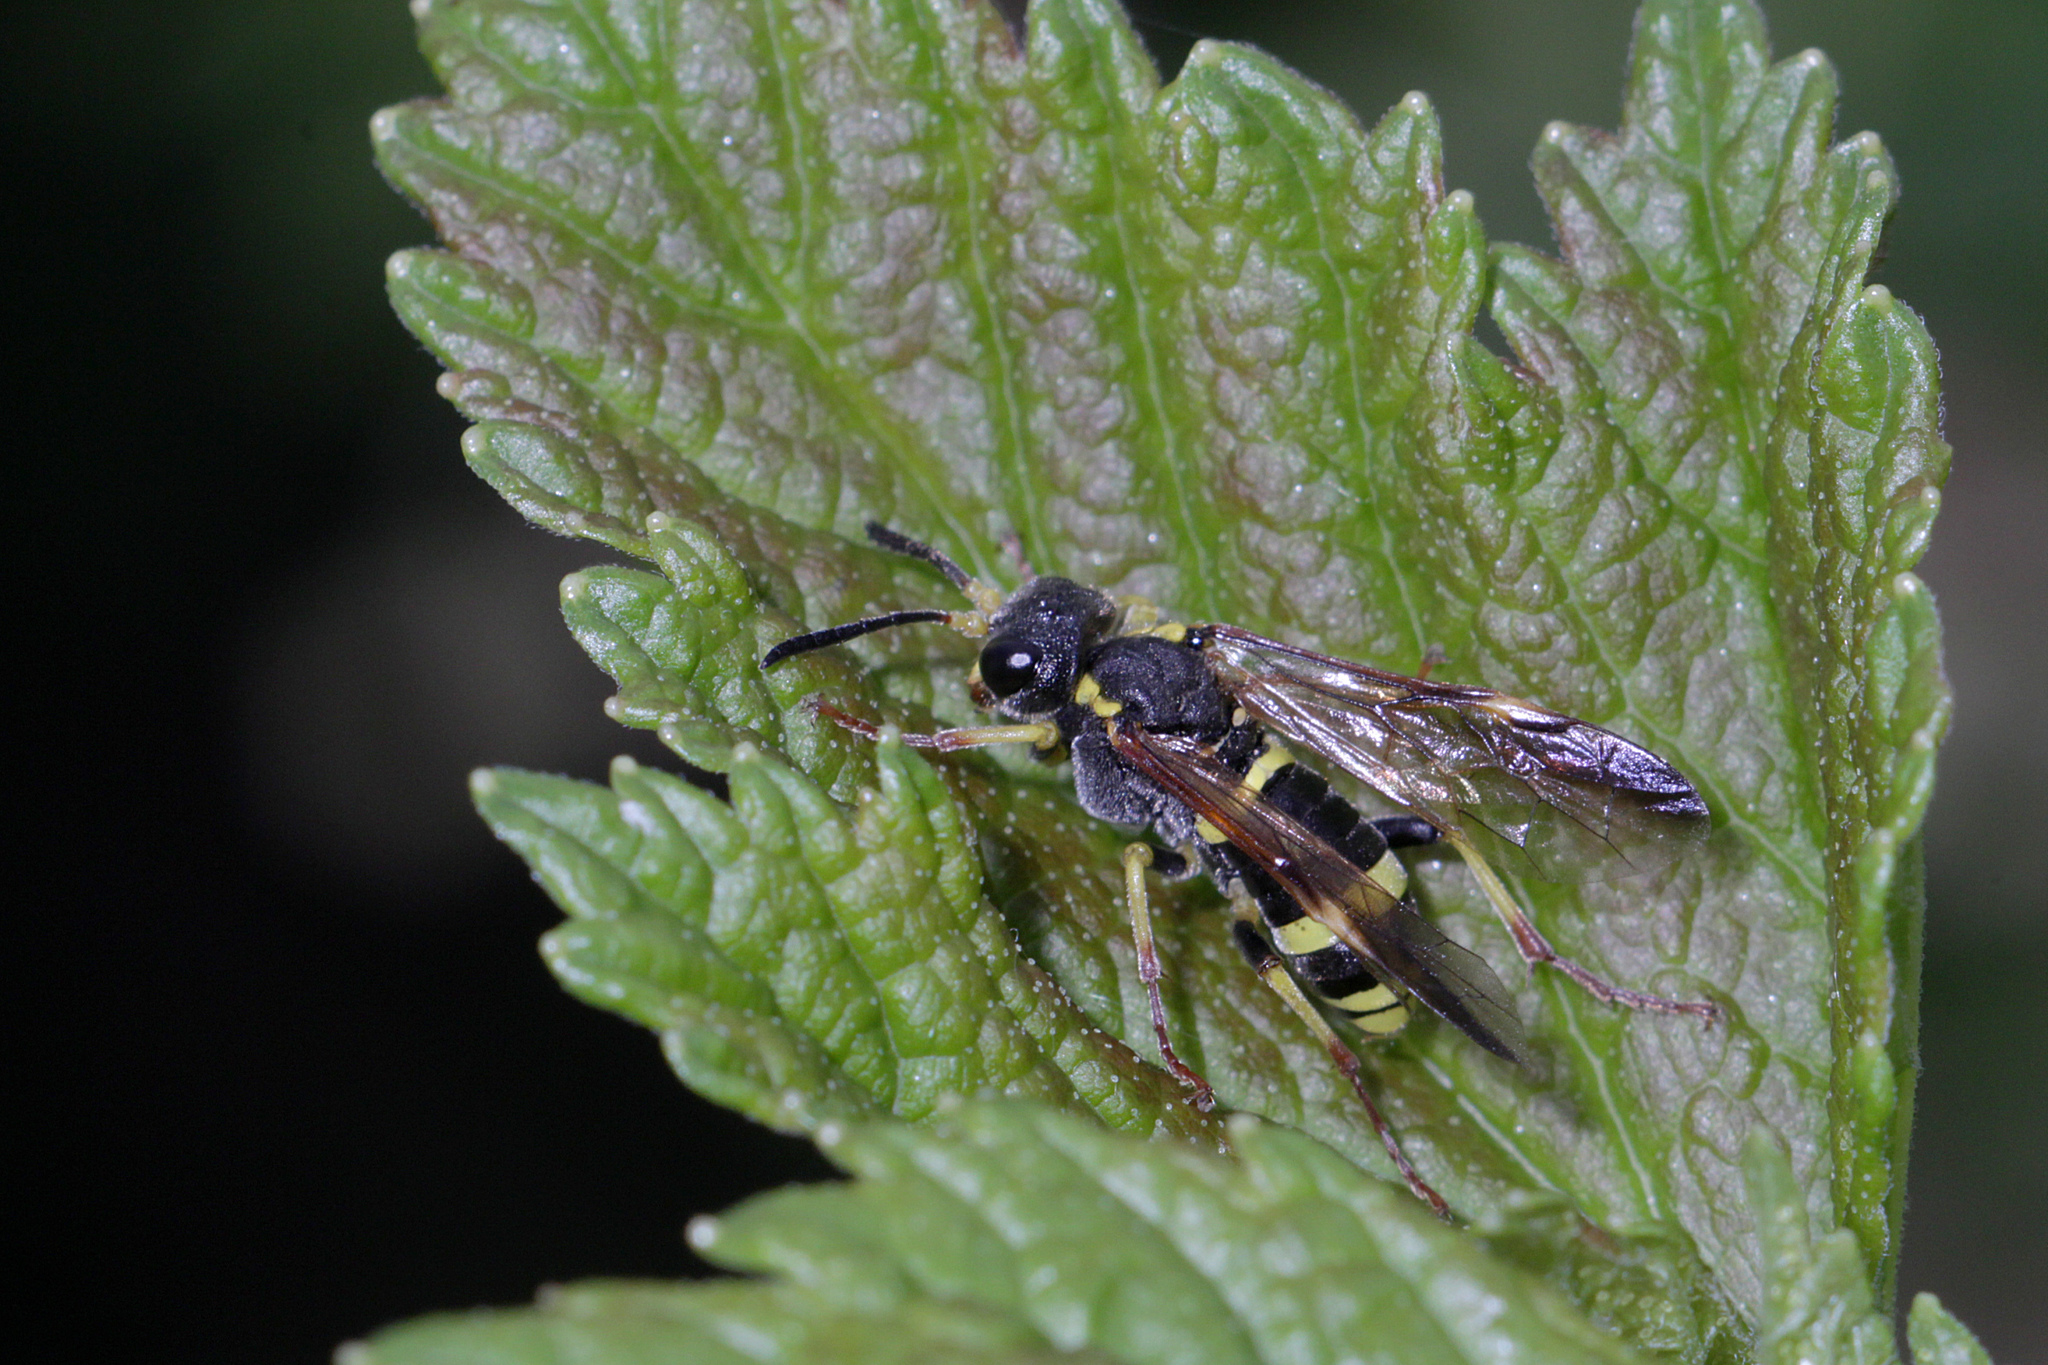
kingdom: Animalia
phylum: Arthropoda
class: Insecta
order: Hymenoptera
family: Tenthredinidae
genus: Tenthredo
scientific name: Tenthredo zona
